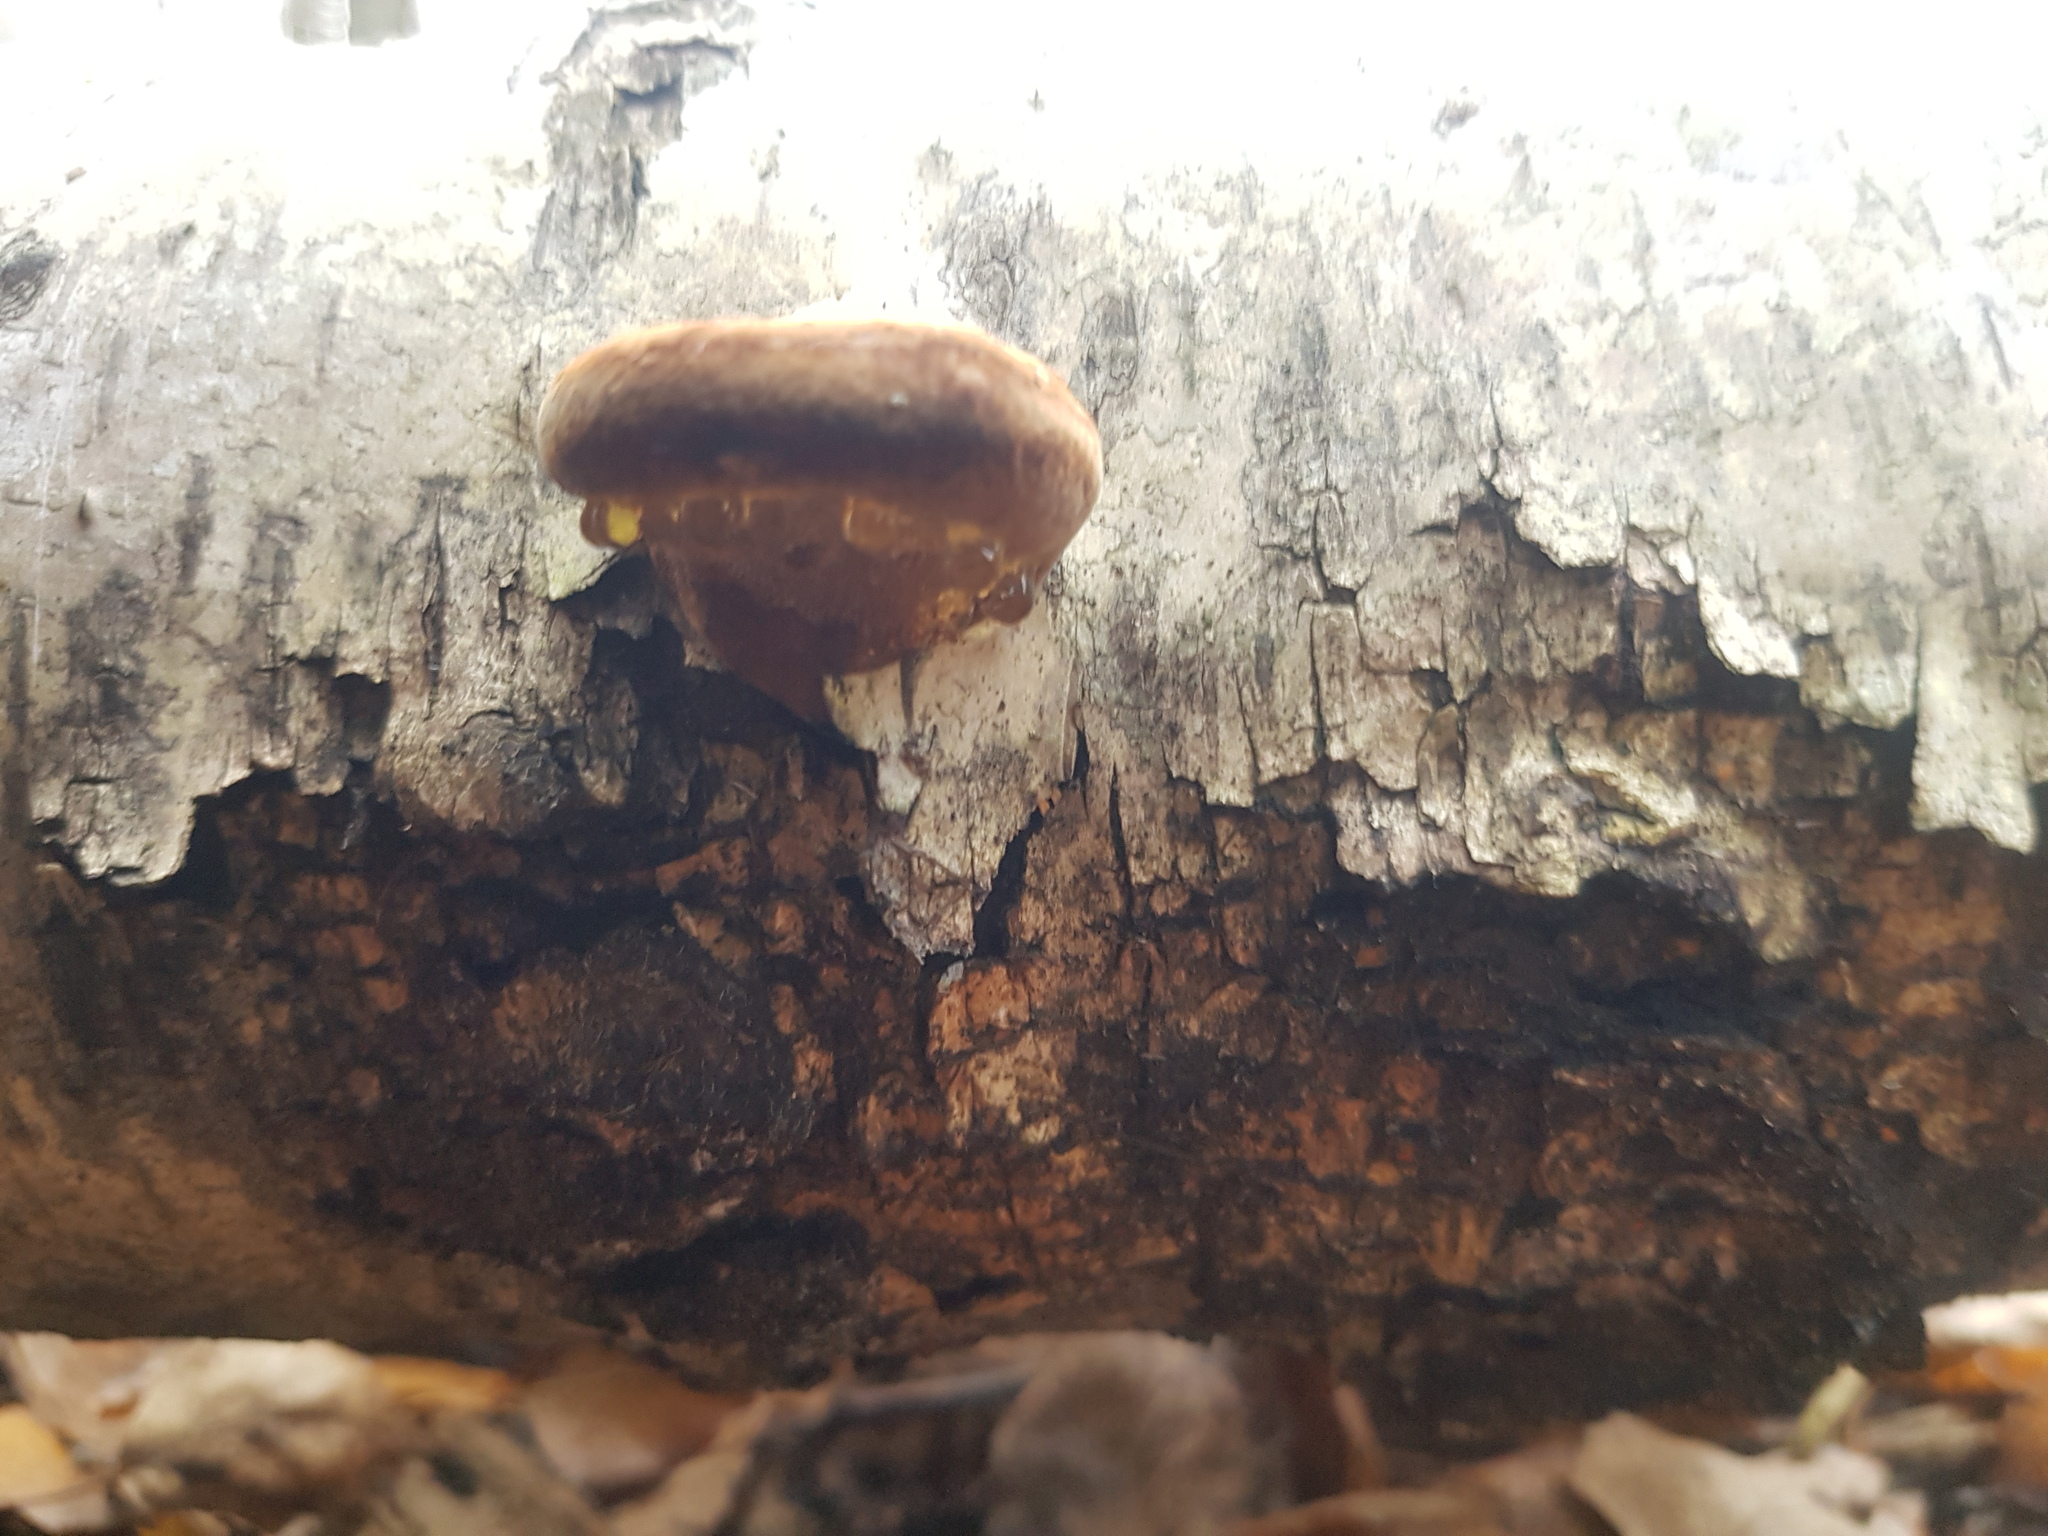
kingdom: Fungi
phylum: Basidiomycota
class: Agaricomycetes
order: Polyporales
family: Polyporaceae
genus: Fomes
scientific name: Fomes fomentarius
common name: Hoof fungus
